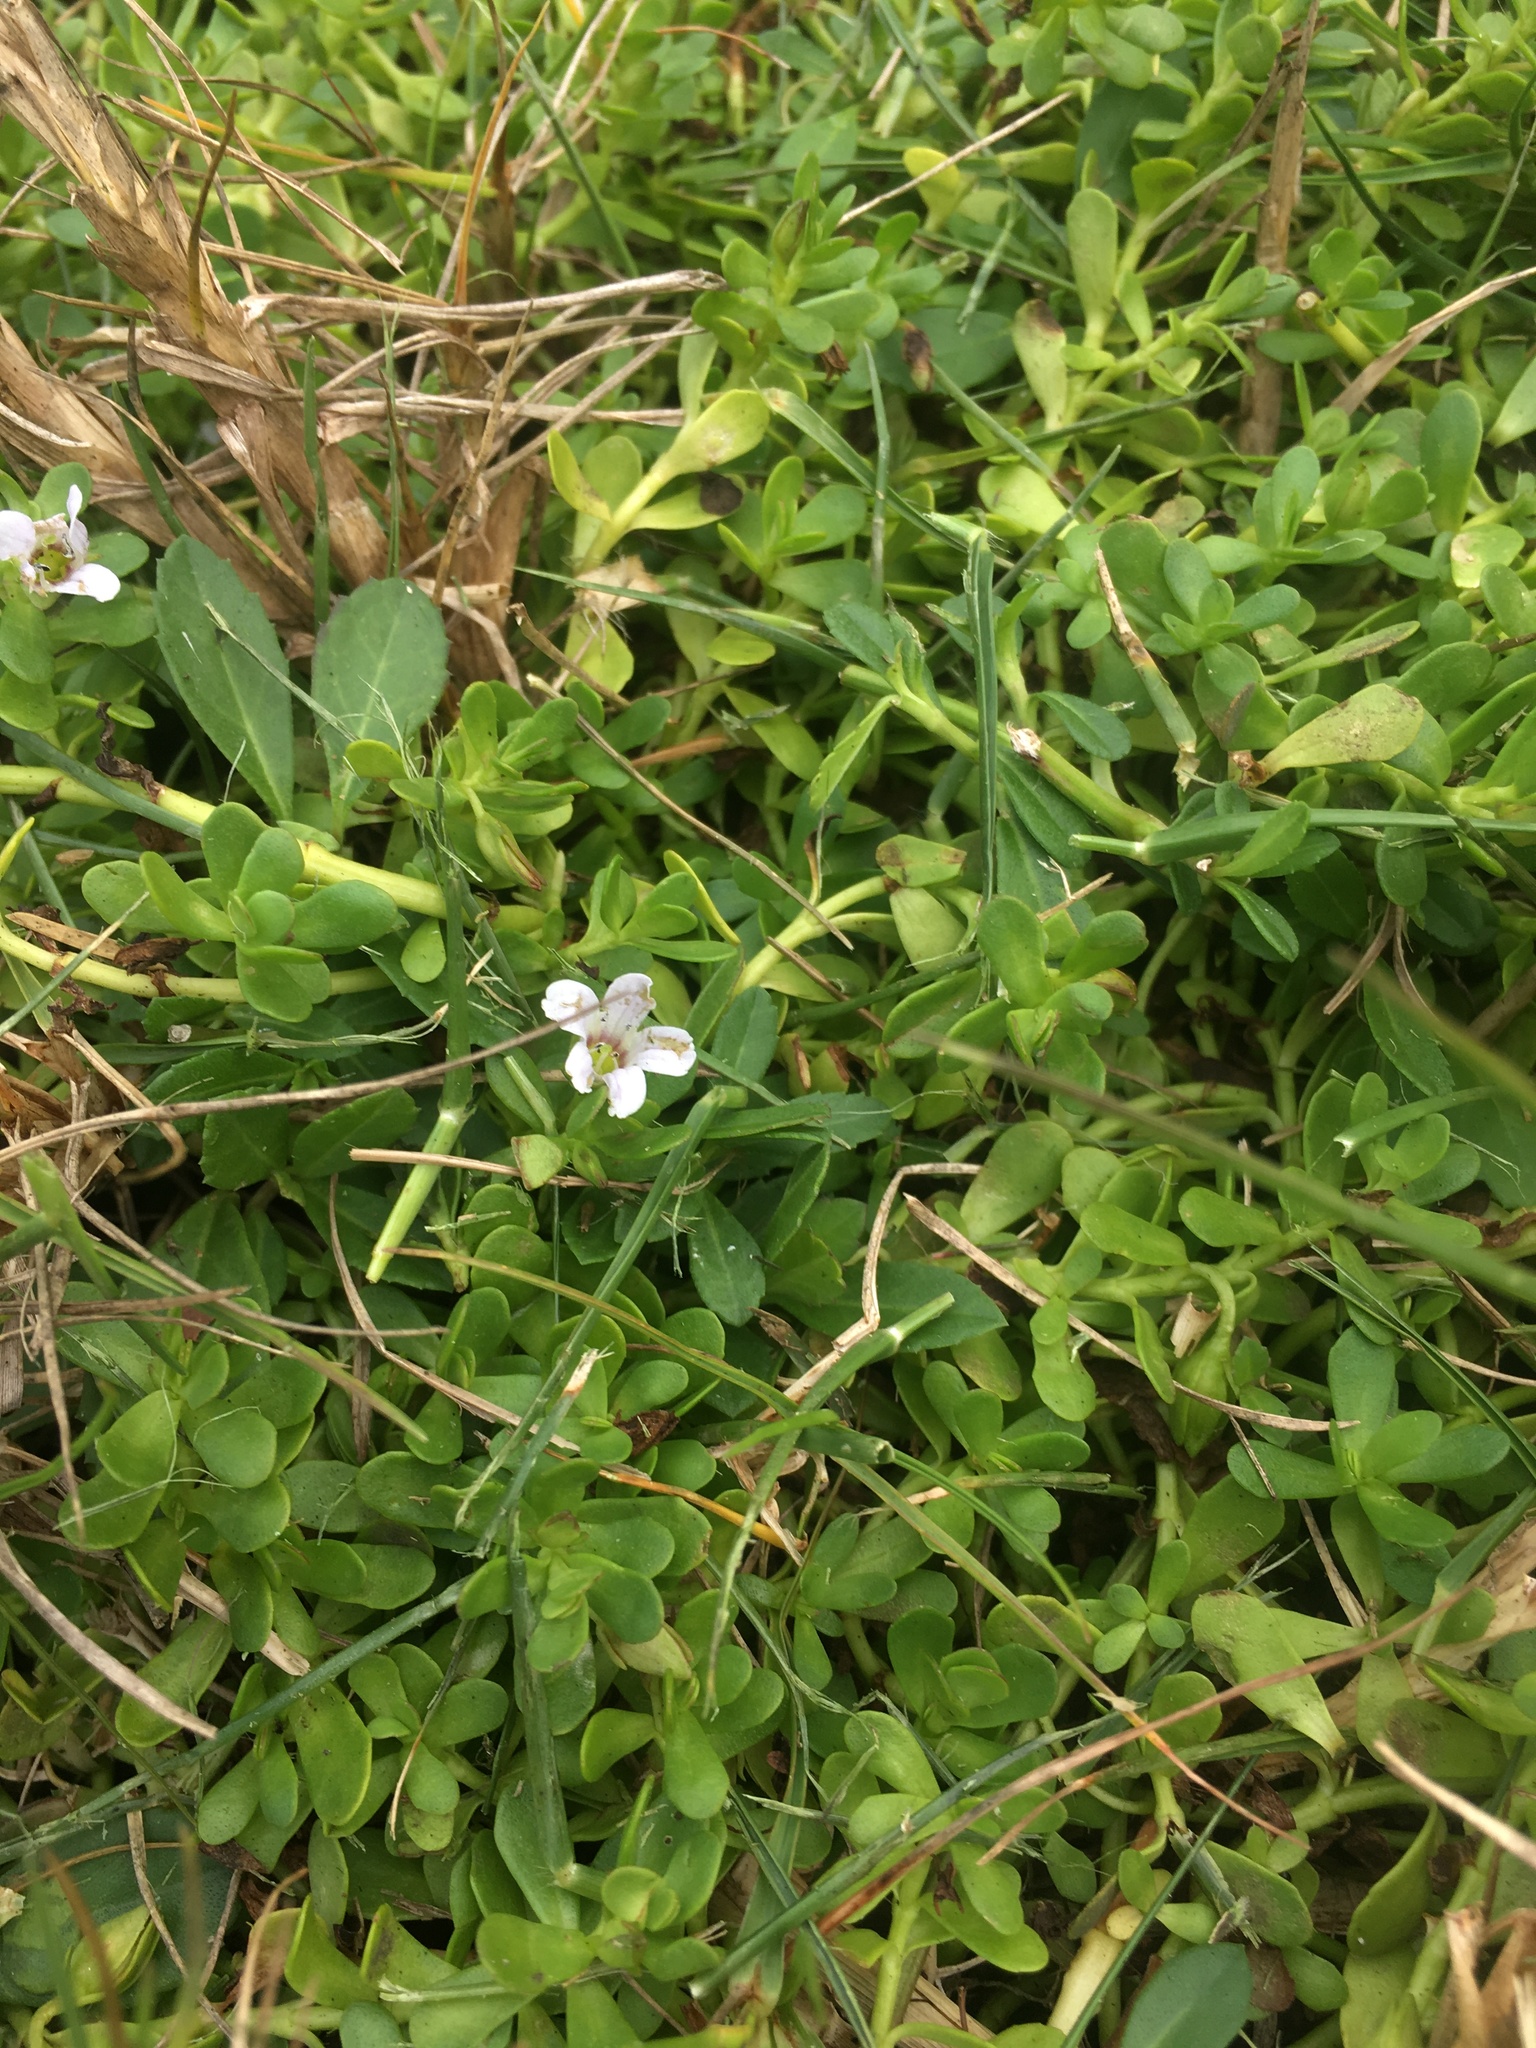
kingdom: Plantae
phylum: Tracheophyta
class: Magnoliopsida
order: Lamiales
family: Plantaginaceae
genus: Bacopa
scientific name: Bacopa monnieri
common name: Indian-pennywort
